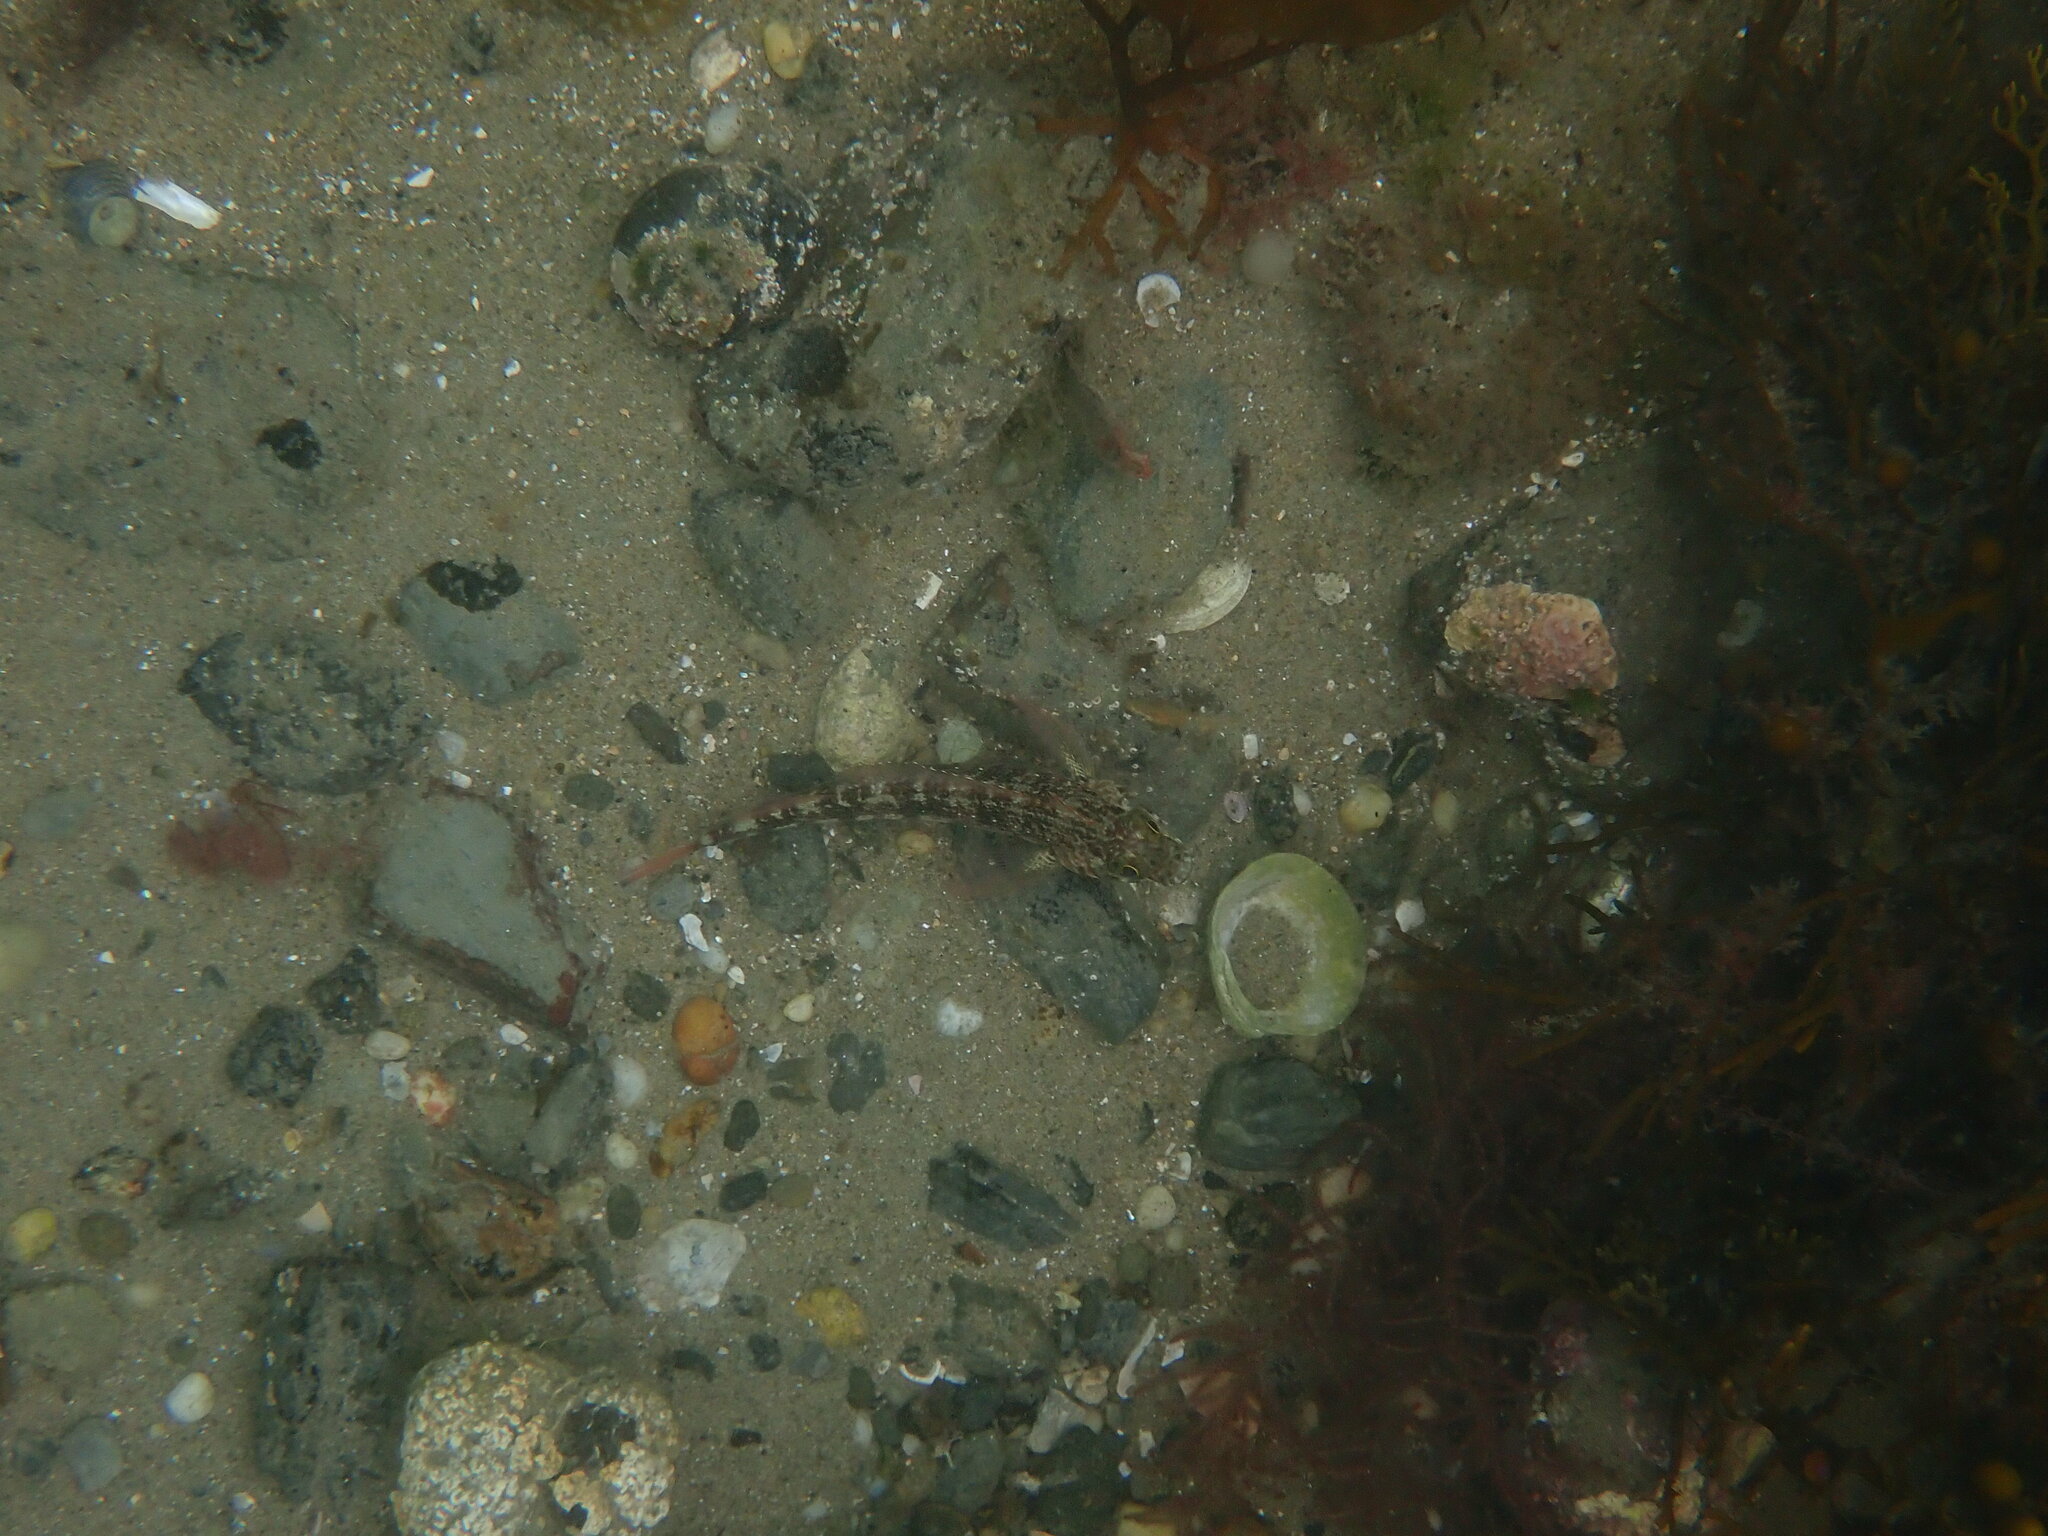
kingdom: Animalia
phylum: Chordata
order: Perciformes
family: Tripterygiidae
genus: Forsterygion
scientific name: Forsterygion varium
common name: Variable triplefin
